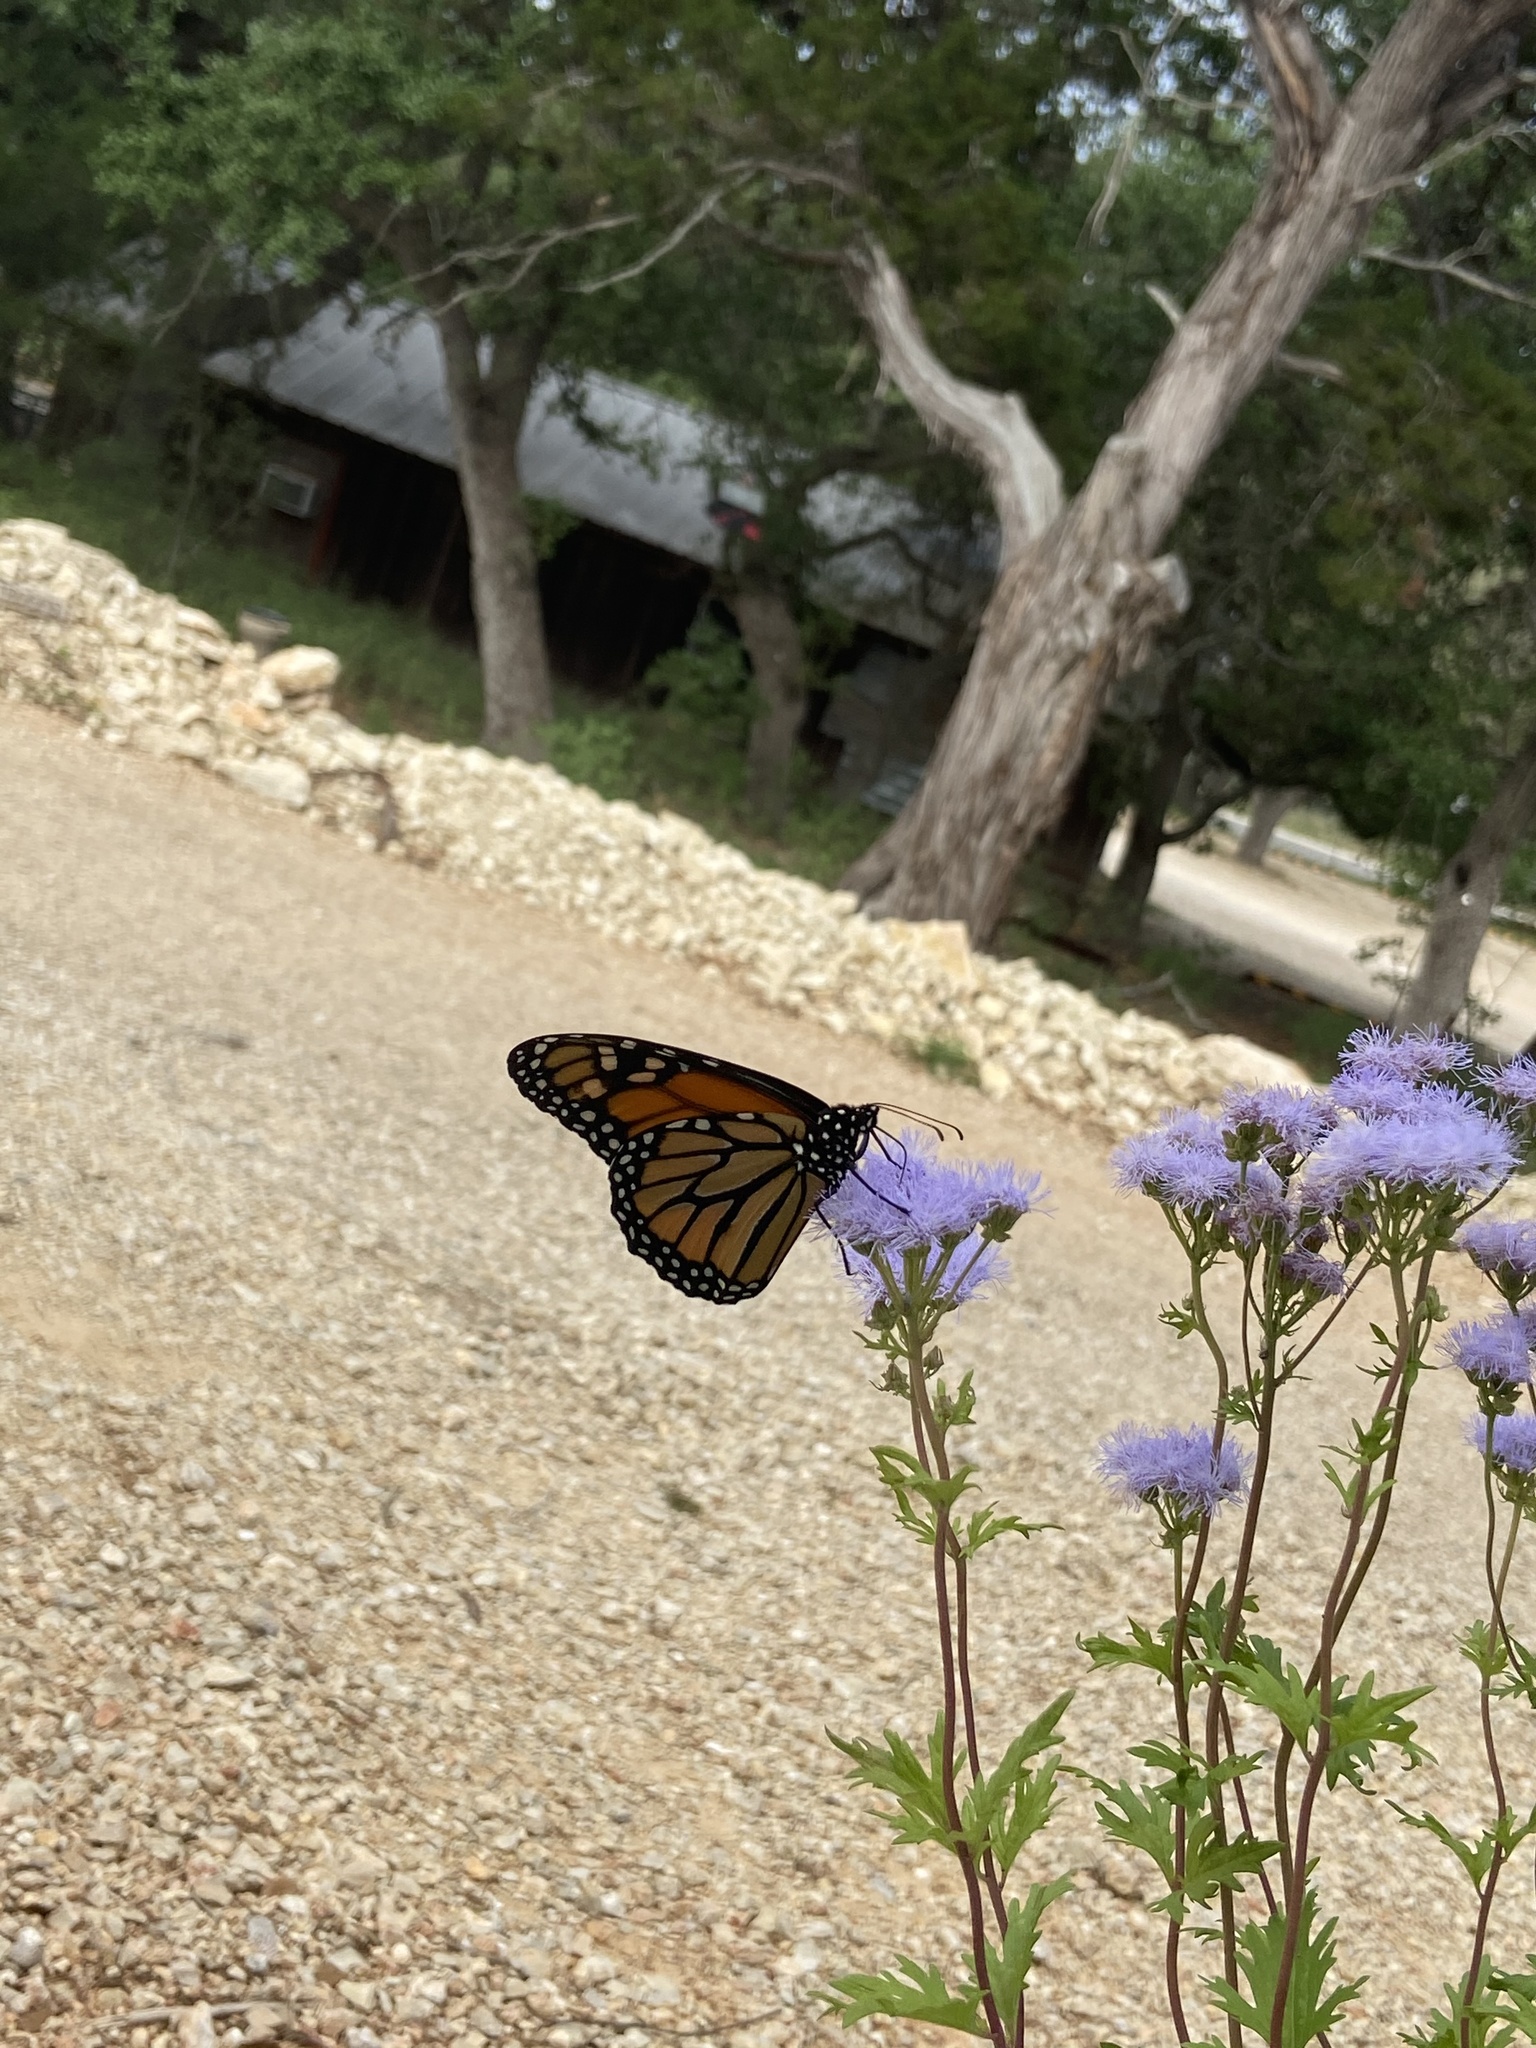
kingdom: Animalia
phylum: Arthropoda
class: Insecta
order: Lepidoptera
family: Nymphalidae
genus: Danaus
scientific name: Danaus plexippus
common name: Monarch
